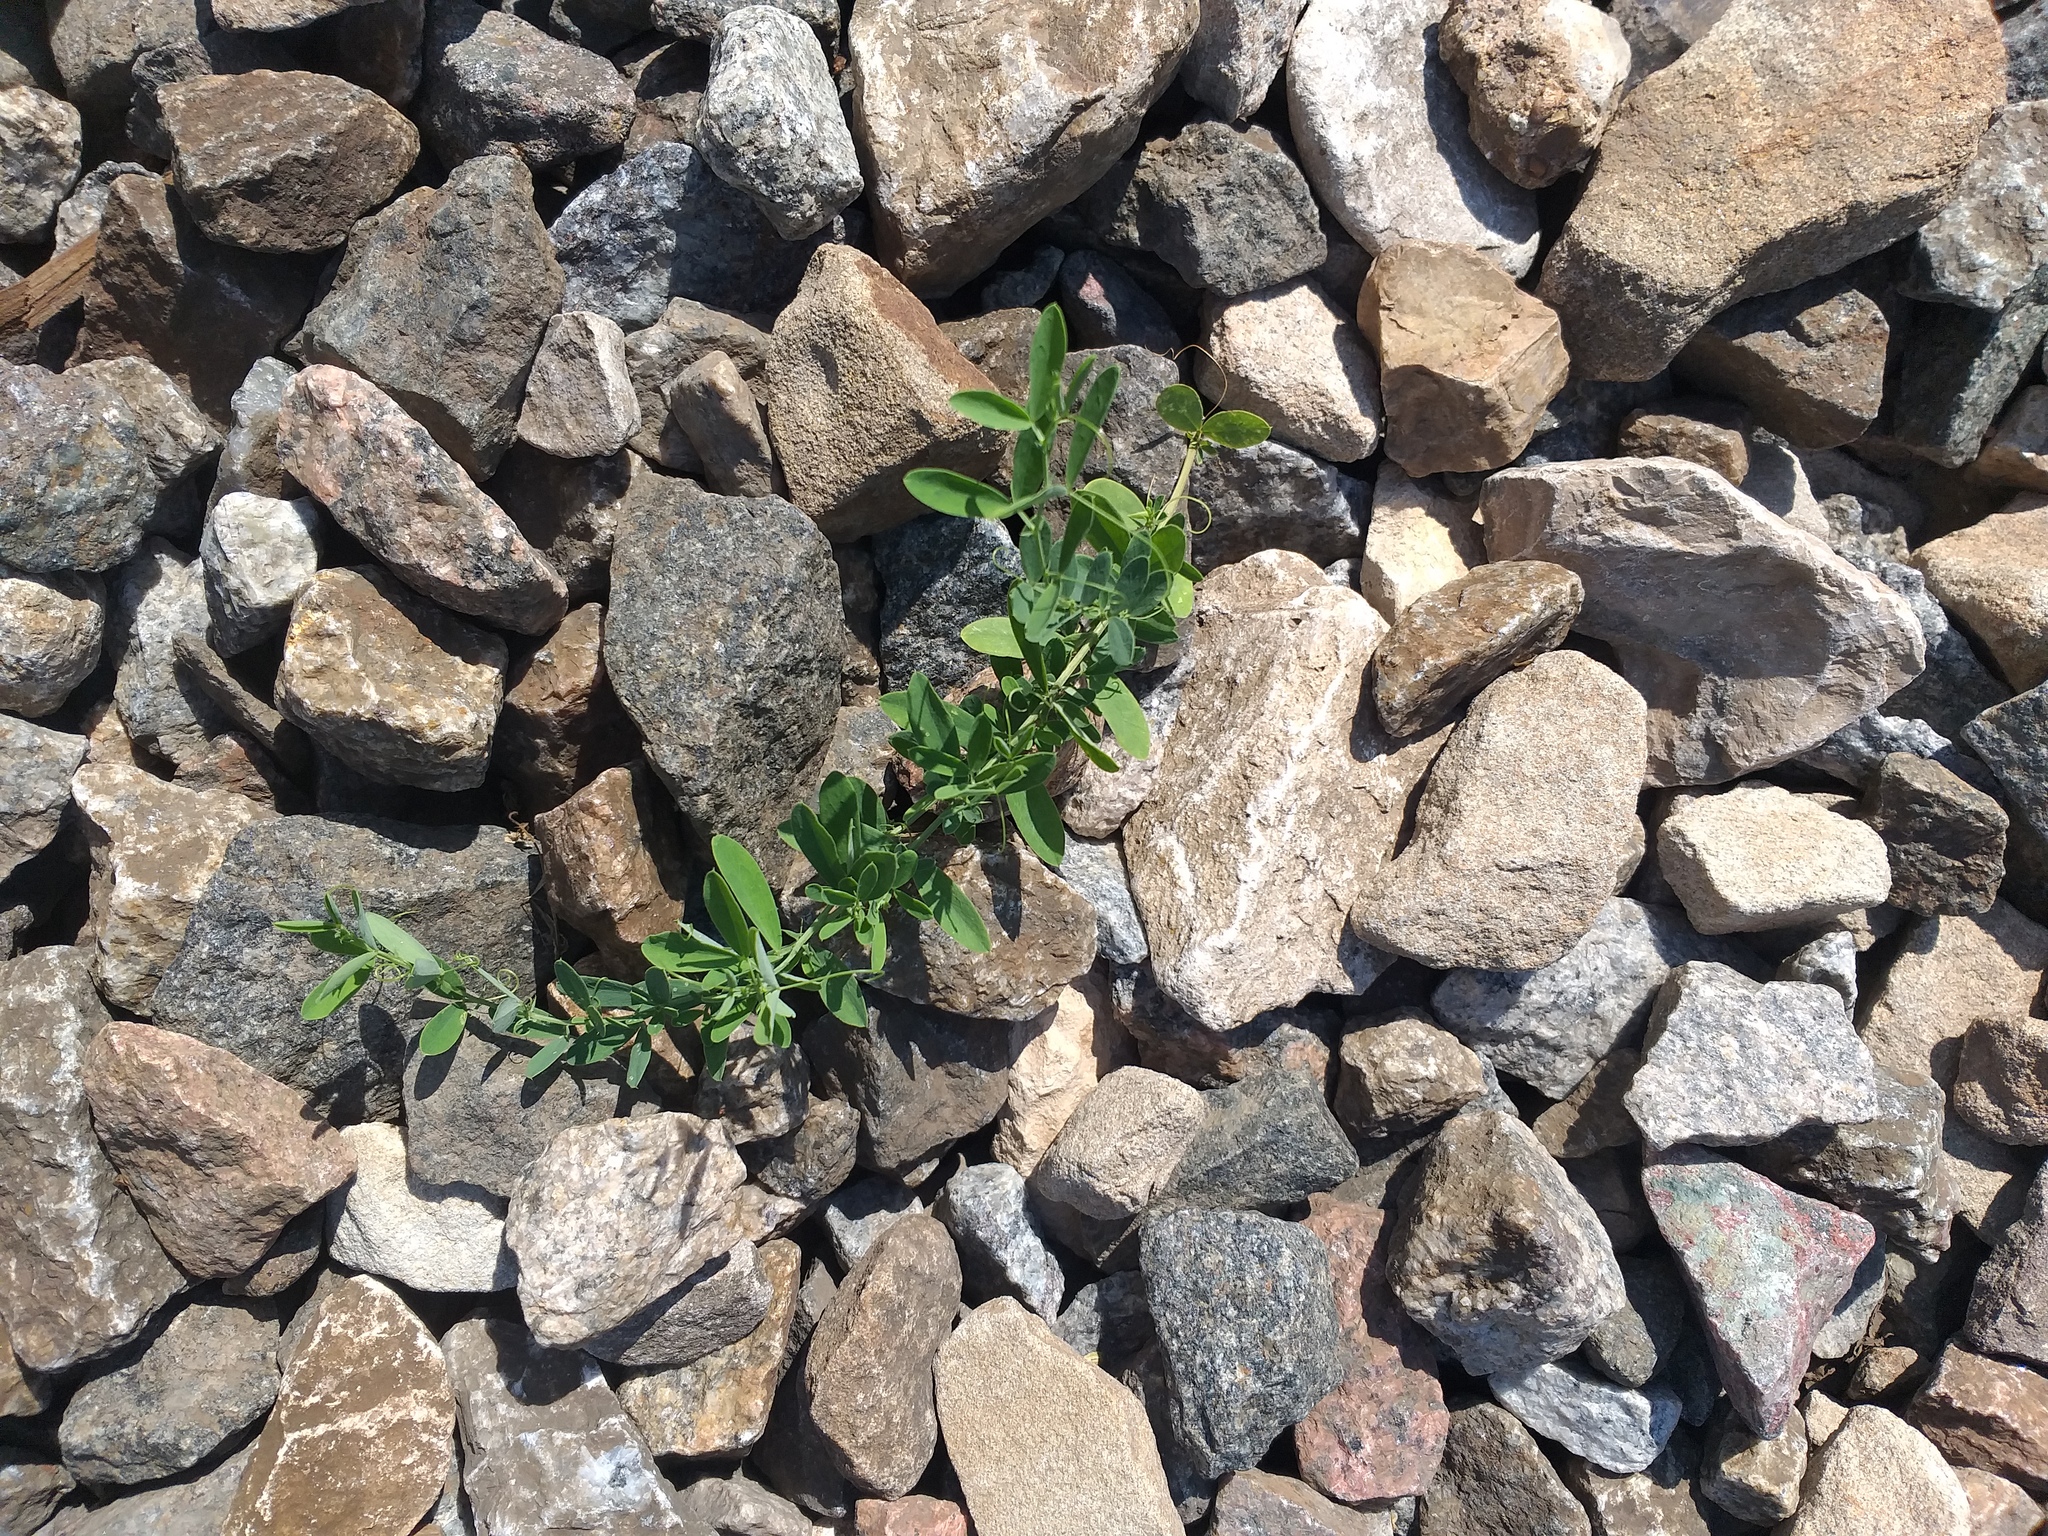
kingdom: Plantae
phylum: Tracheophyta
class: Magnoliopsida
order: Fabales
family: Fabaceae
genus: Lathyrus
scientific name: Lathyrus tuberosus
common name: Tuberous pea
